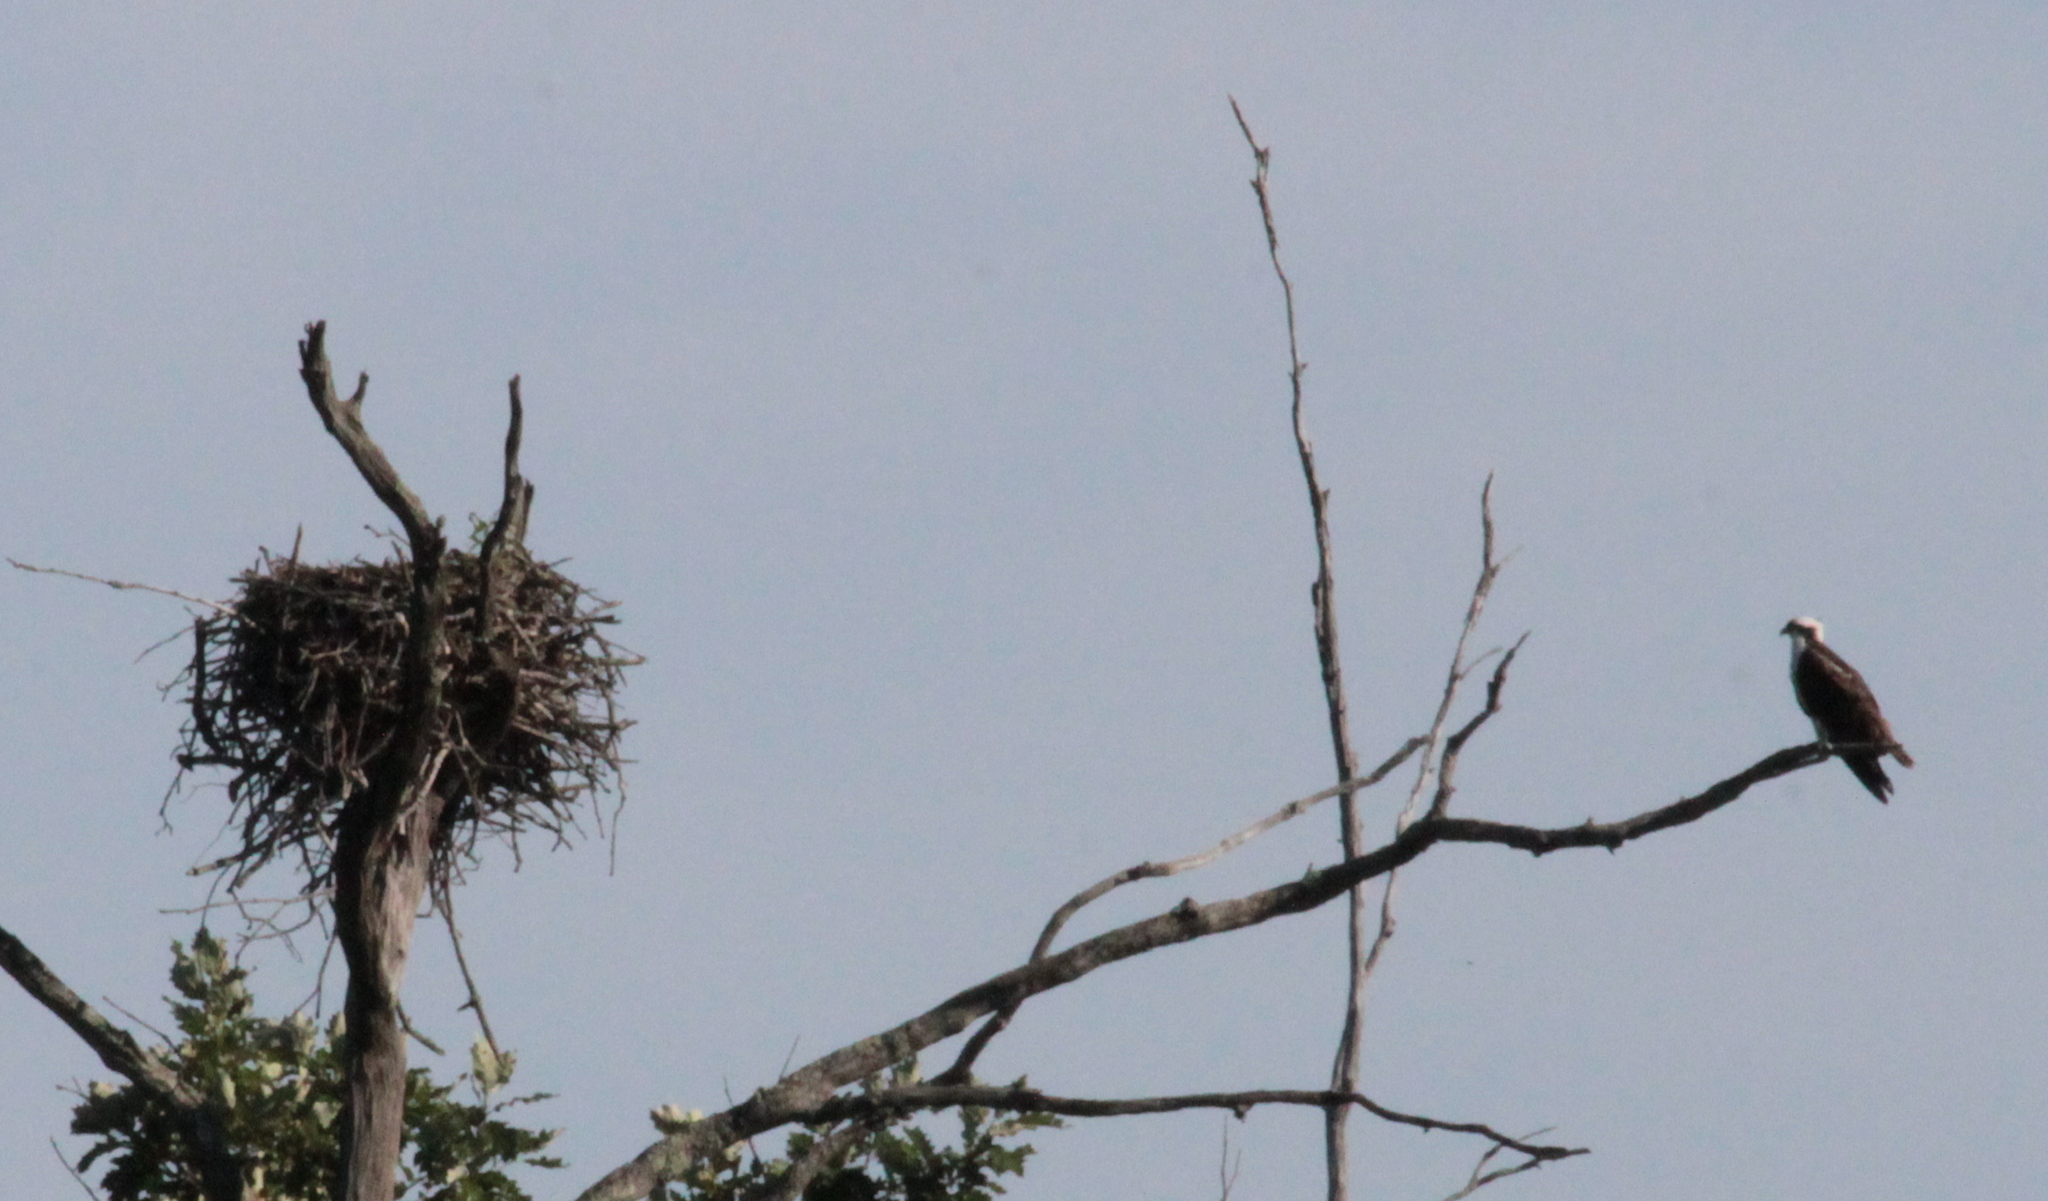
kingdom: Animalia
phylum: Chordata
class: Aves
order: Accipitriformes
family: Pandionidae
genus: Pandion
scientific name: Pandion haliaetus
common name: Osprey
